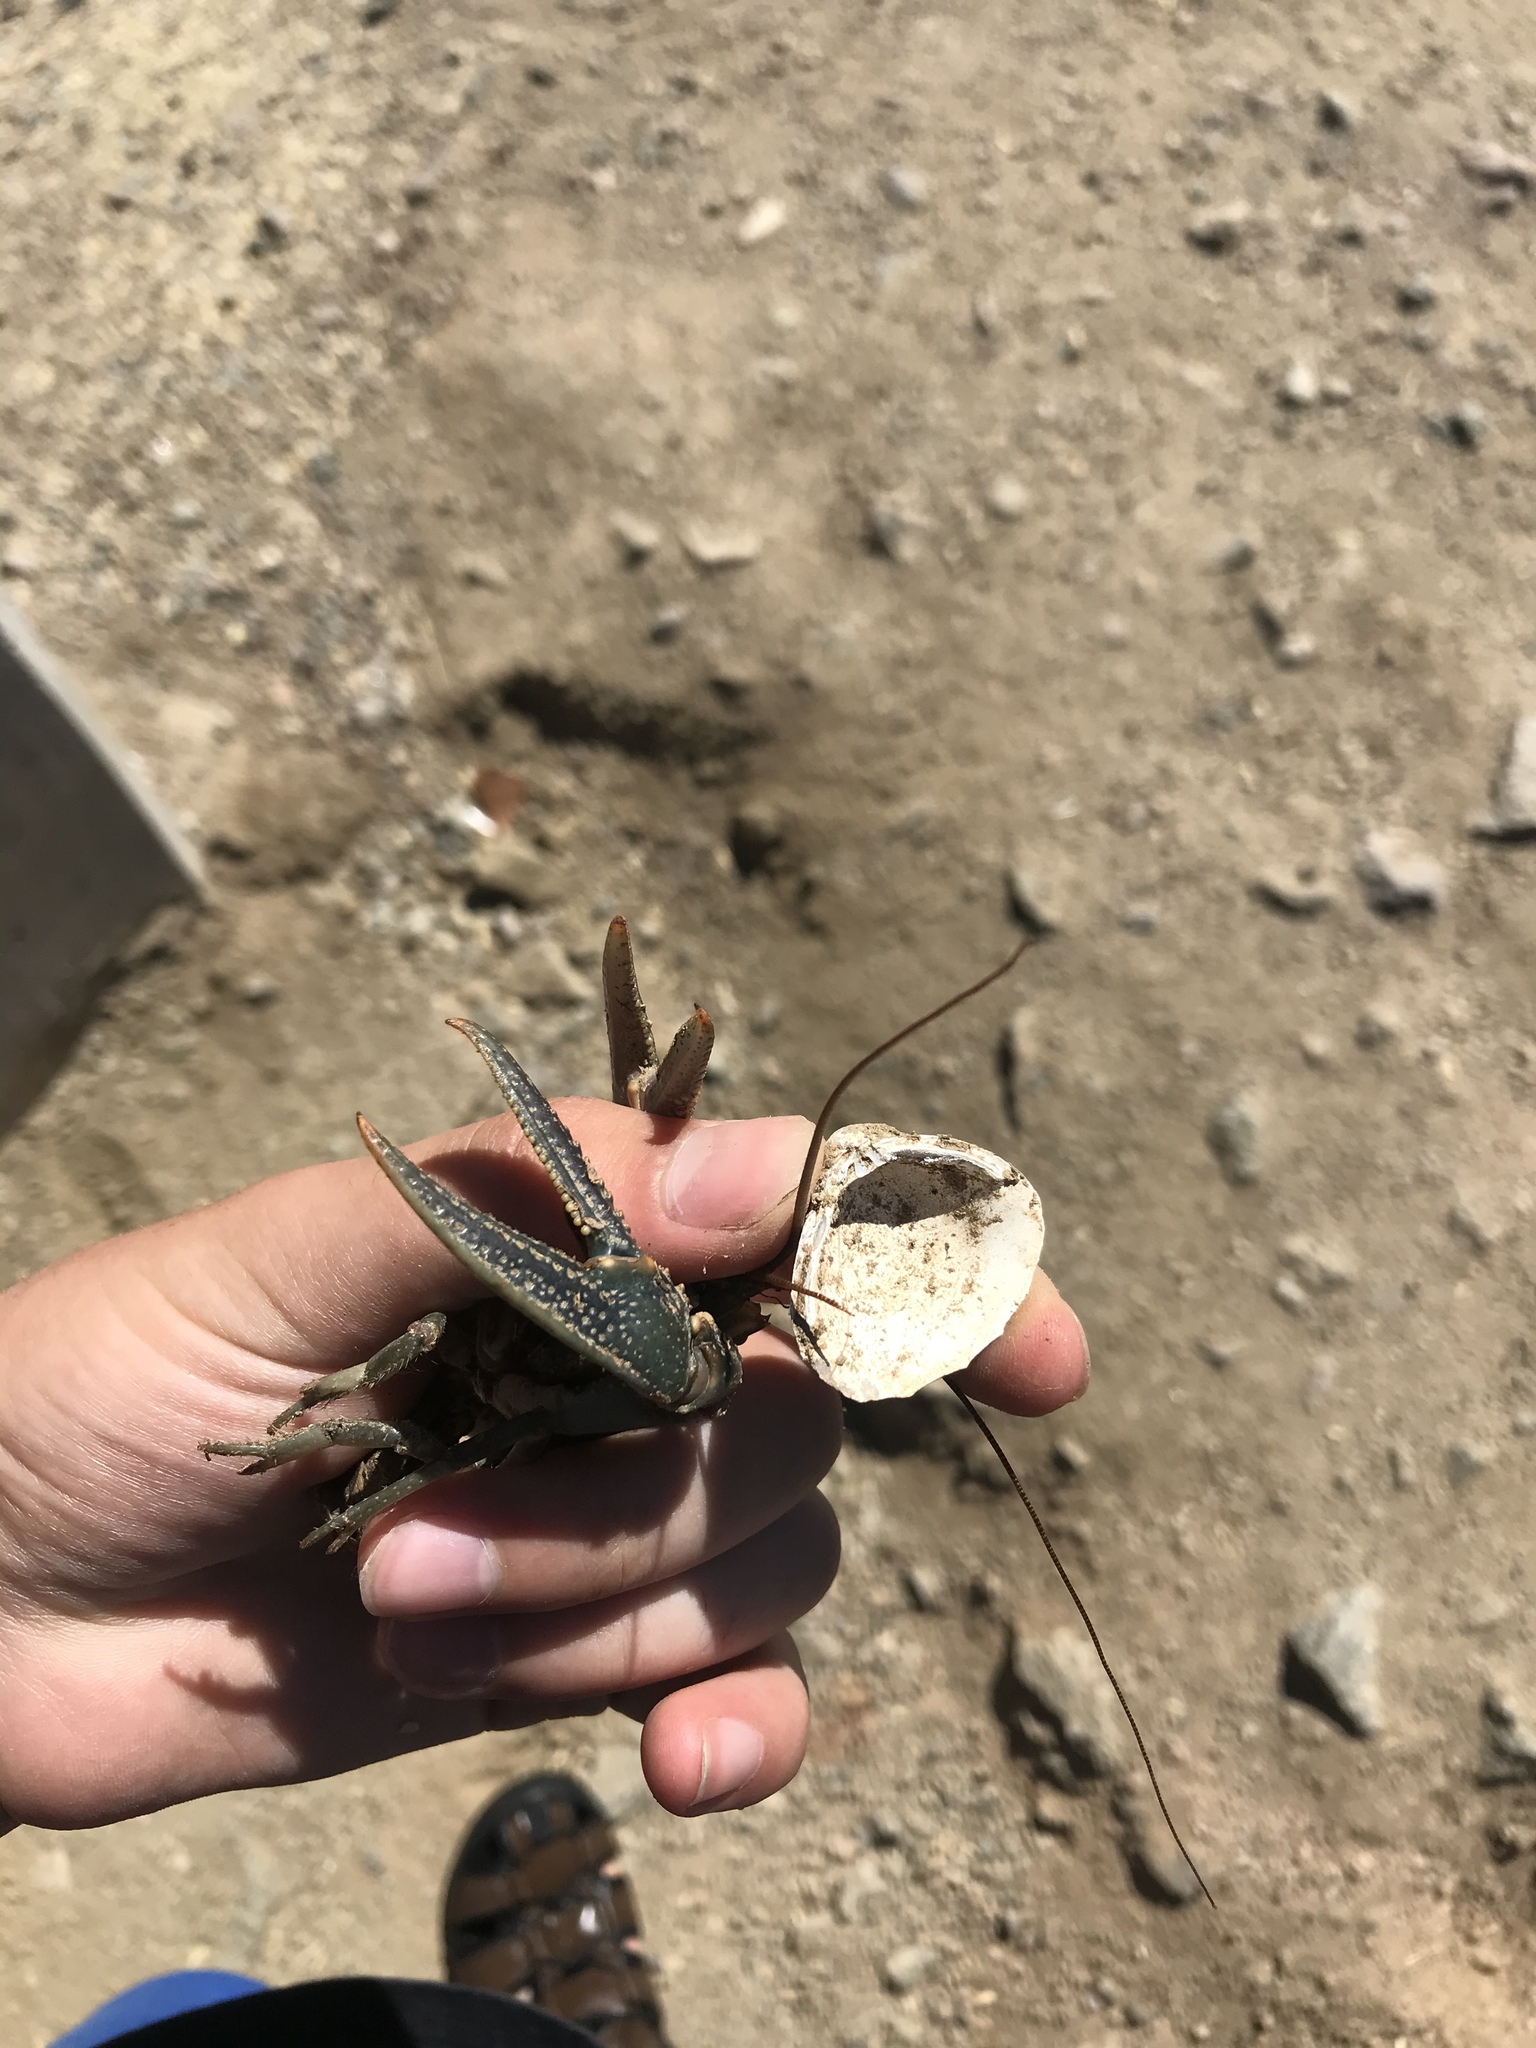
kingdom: Animalia
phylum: Mollusca
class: Bivalvia
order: Venerida
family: Cyrenidae
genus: Corbicula
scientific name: Corbicula fluminea
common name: Asian clam
